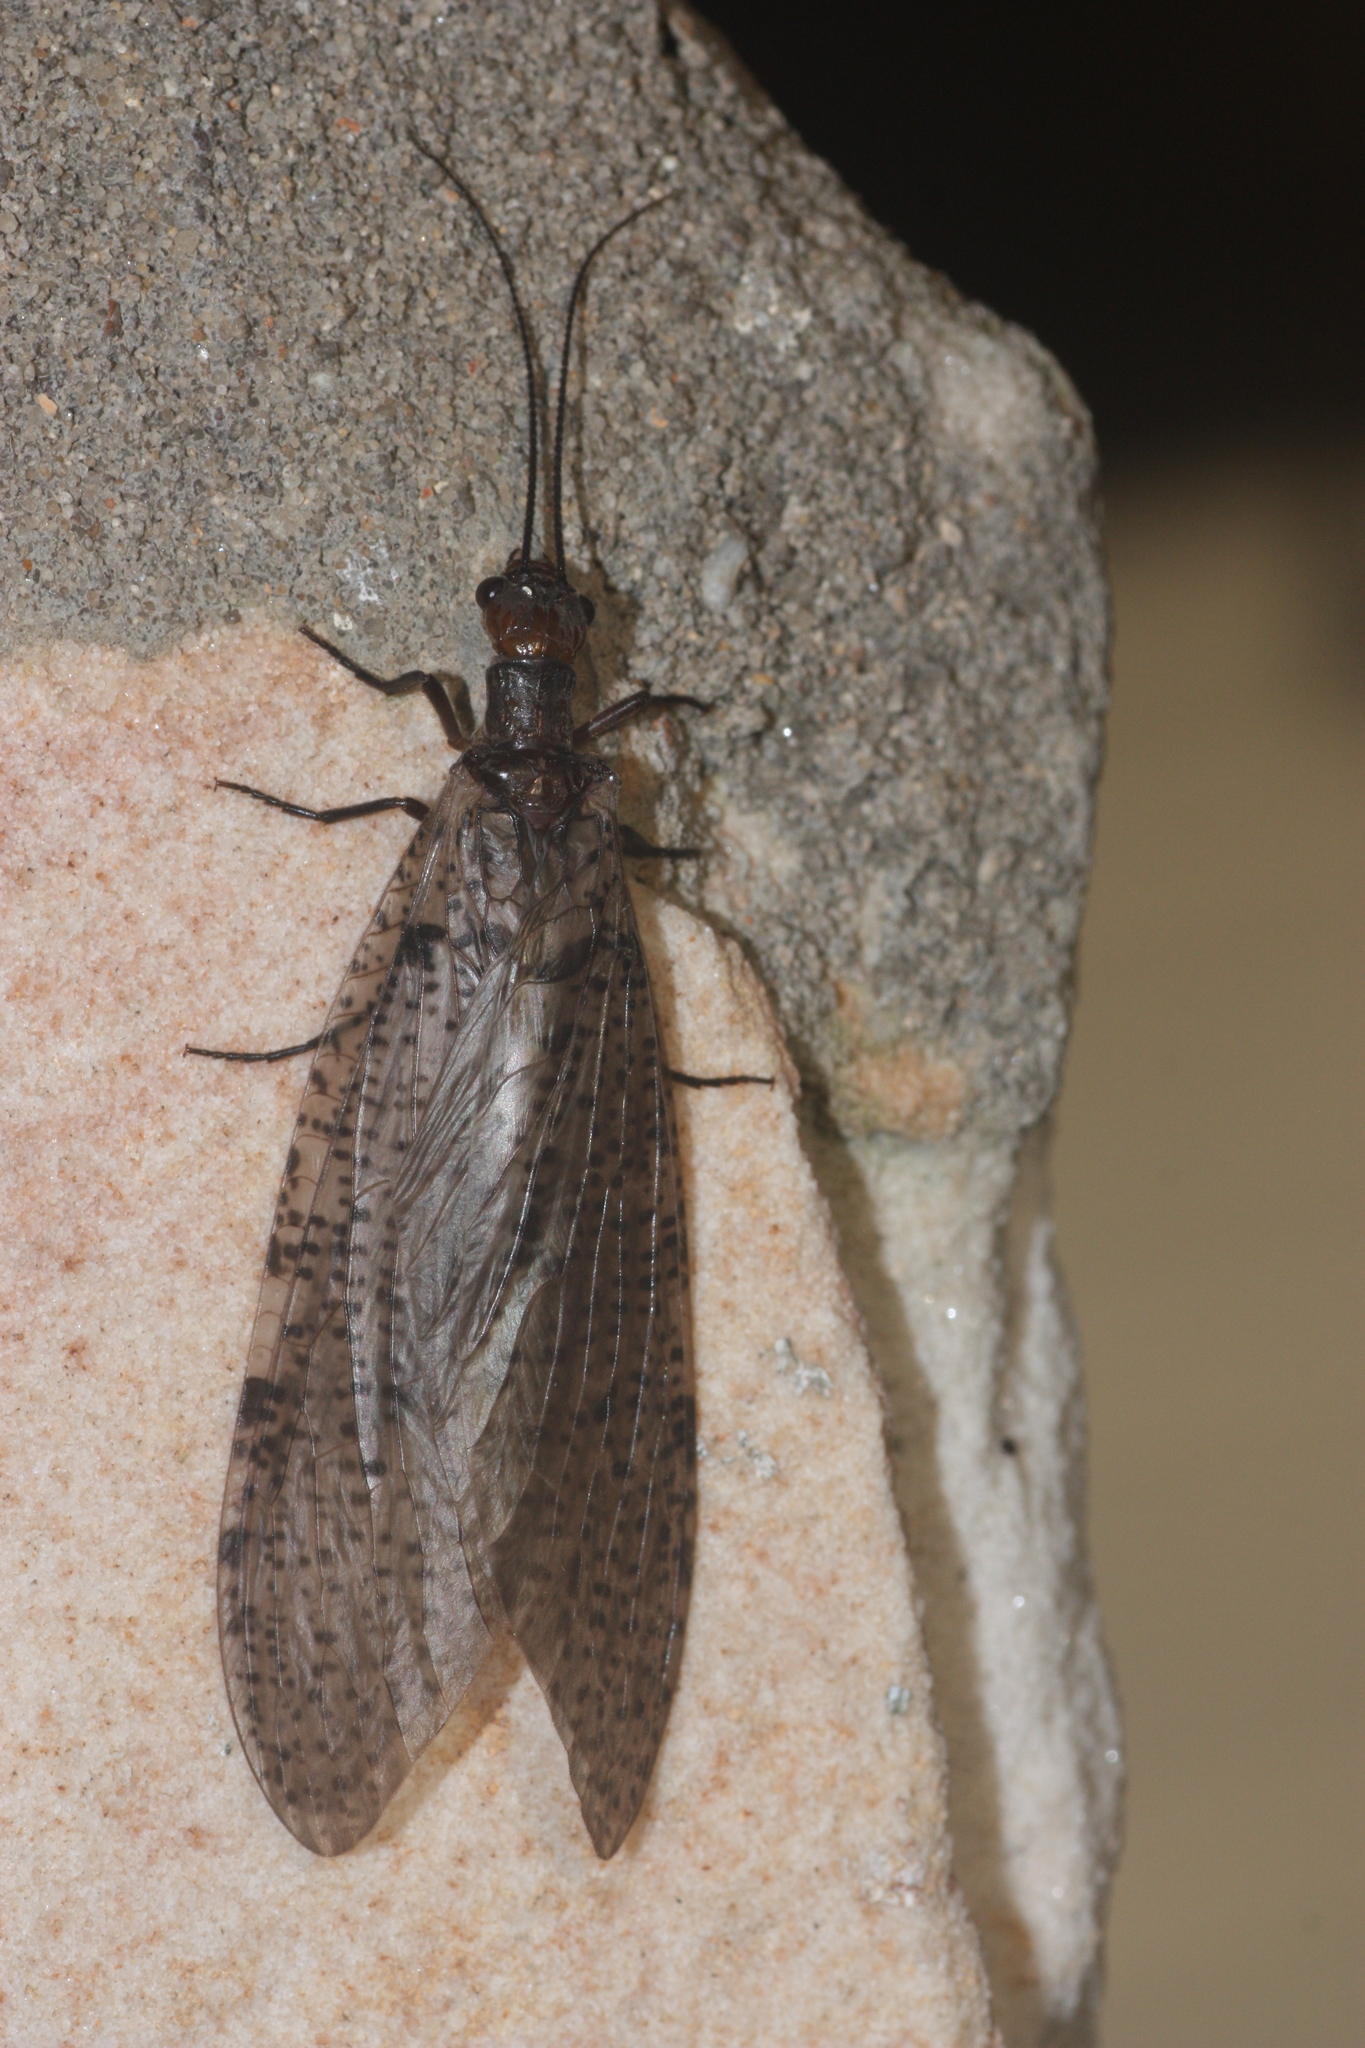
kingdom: Animalia
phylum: Arthropoda
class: Insecta
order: Megaloptera
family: Corydalidae
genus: Neohermes
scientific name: Neohermes concolor
